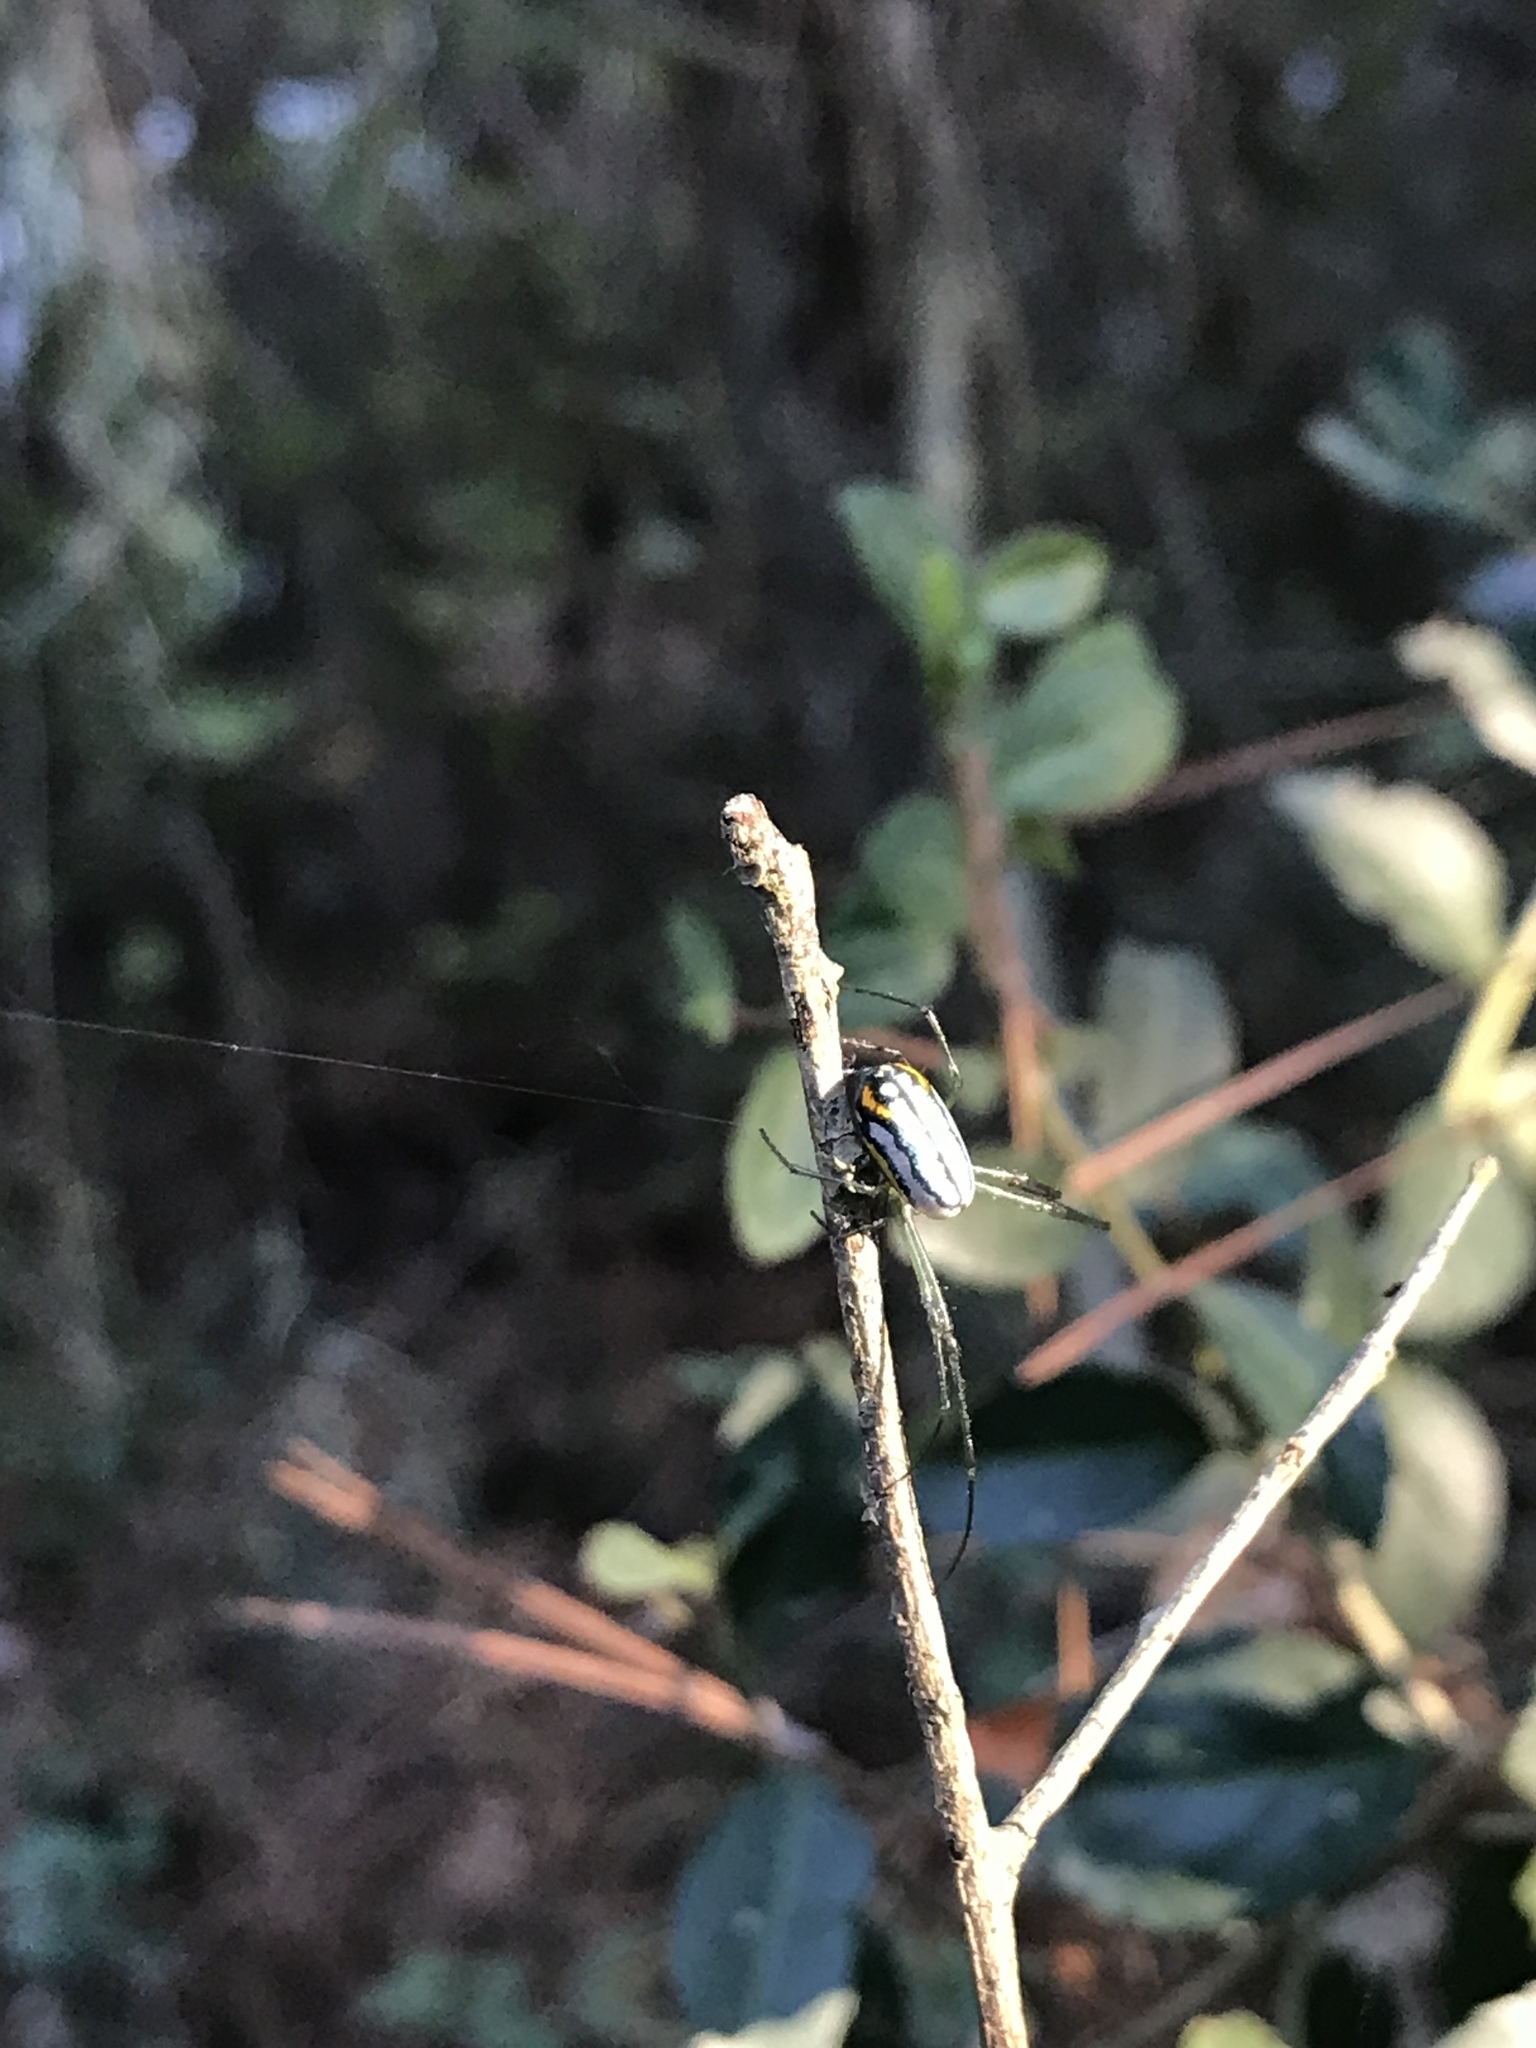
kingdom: Animalia
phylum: Arthropoda
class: Arachnida
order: Araneae
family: Tetragnathidae
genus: Leucauge
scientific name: Leucauge argyrobapta
